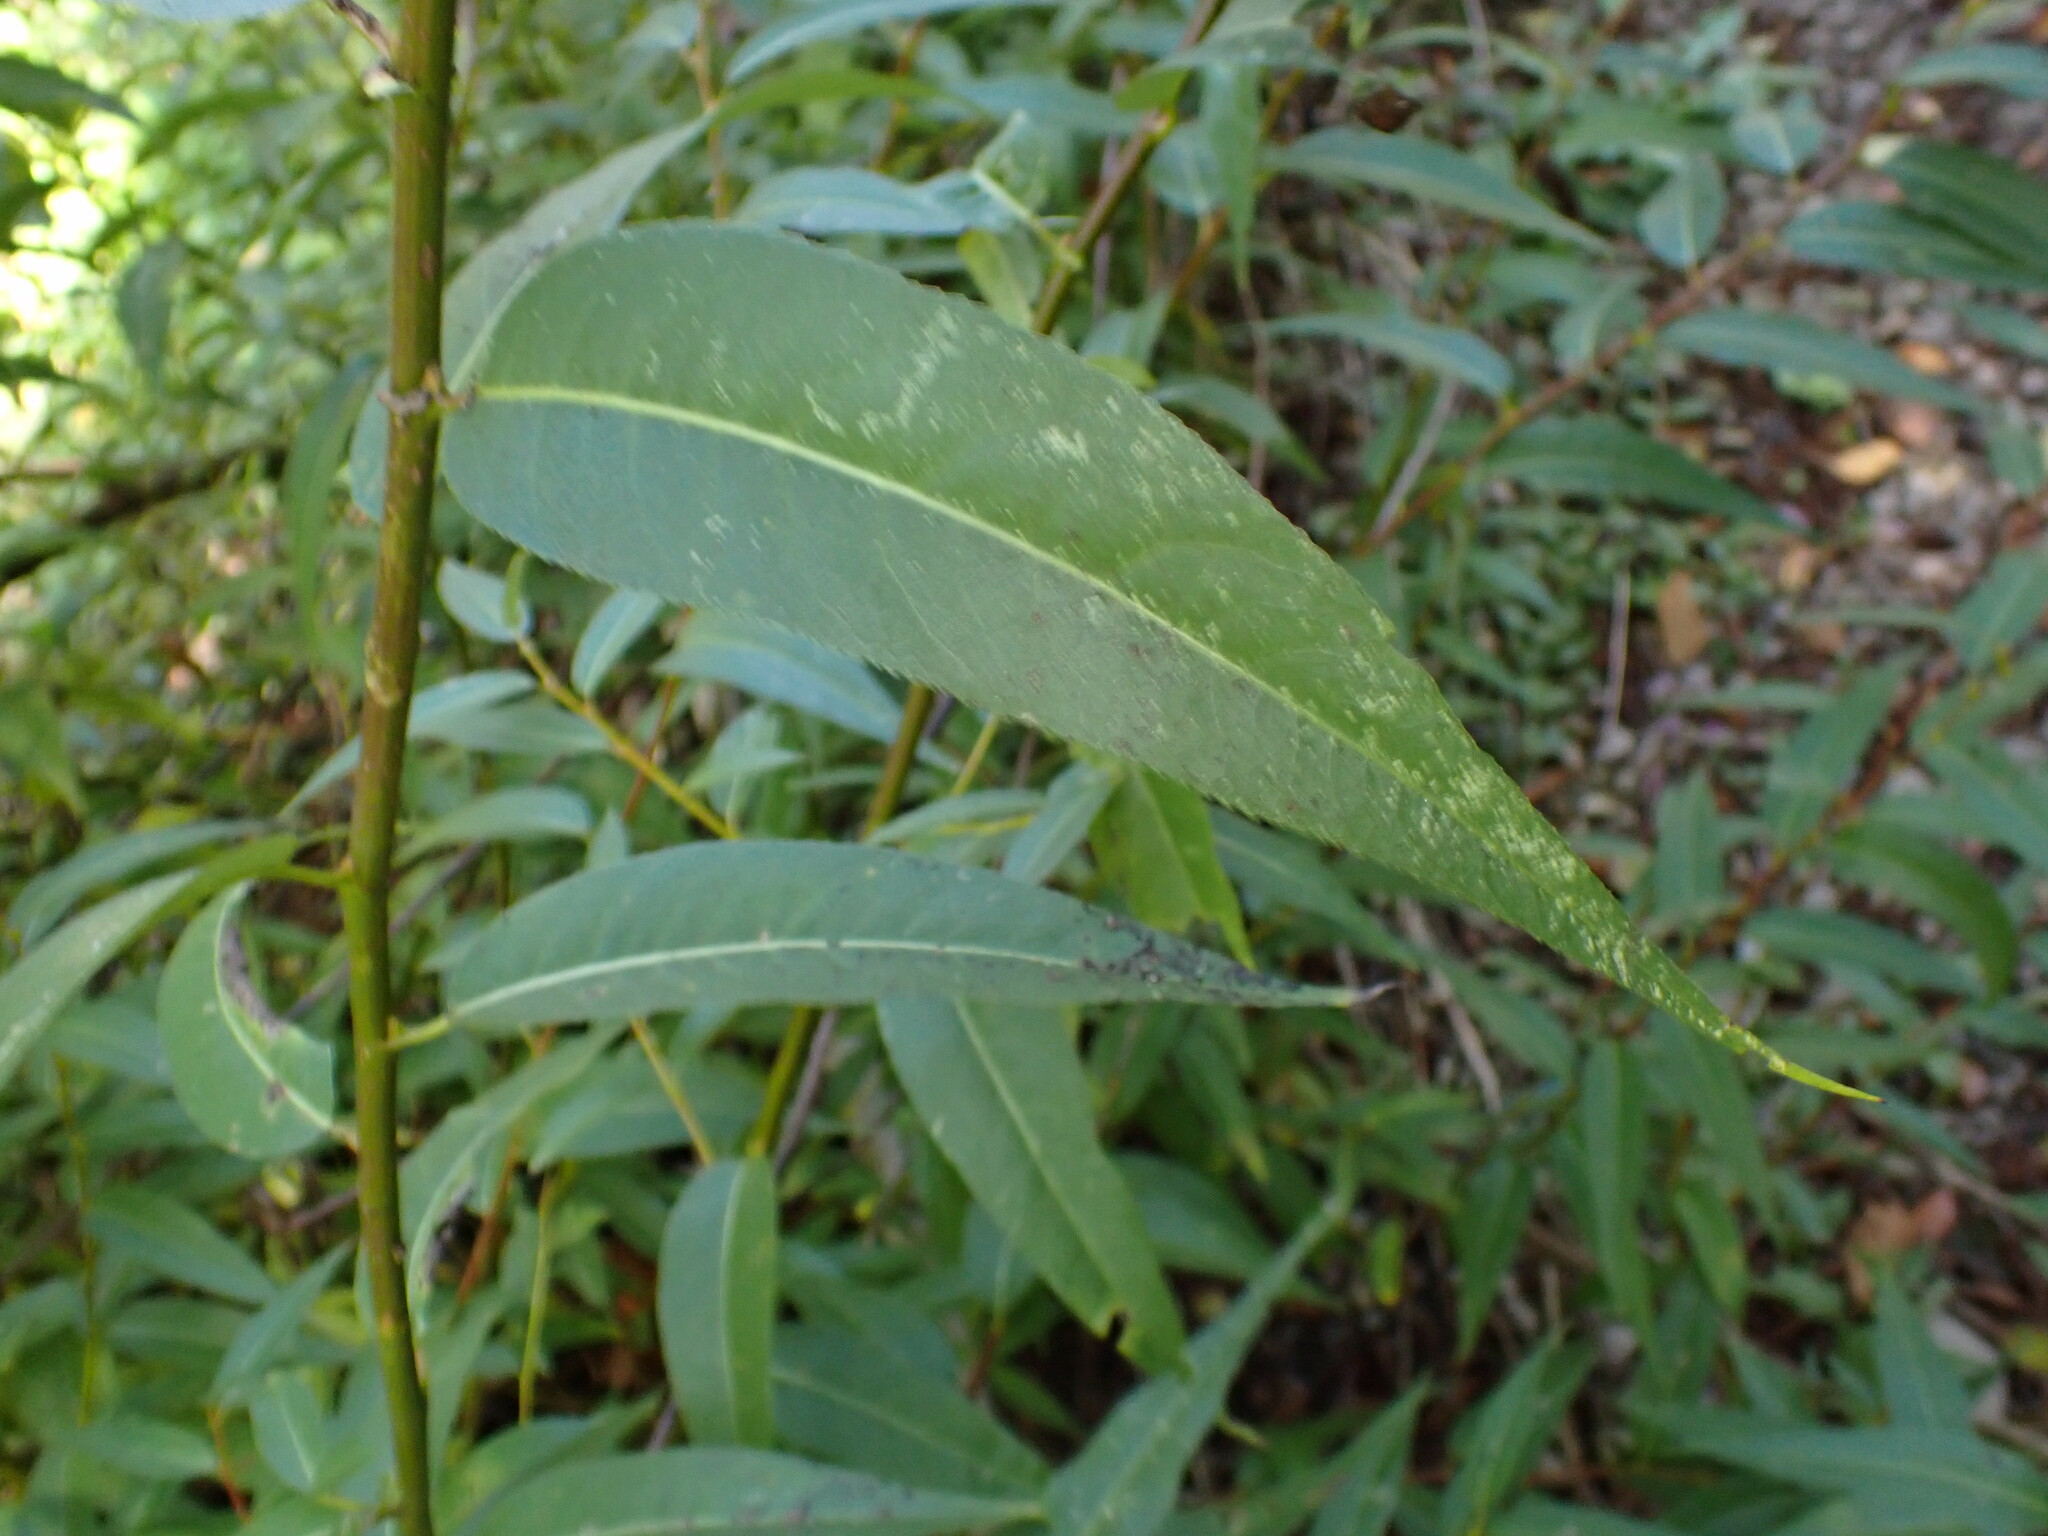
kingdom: Plantae
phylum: Tracheophyta
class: Magnoliopsida
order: Malpighiales
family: Salicaceae
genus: Salix
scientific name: Salix lucida
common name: Shining willow
